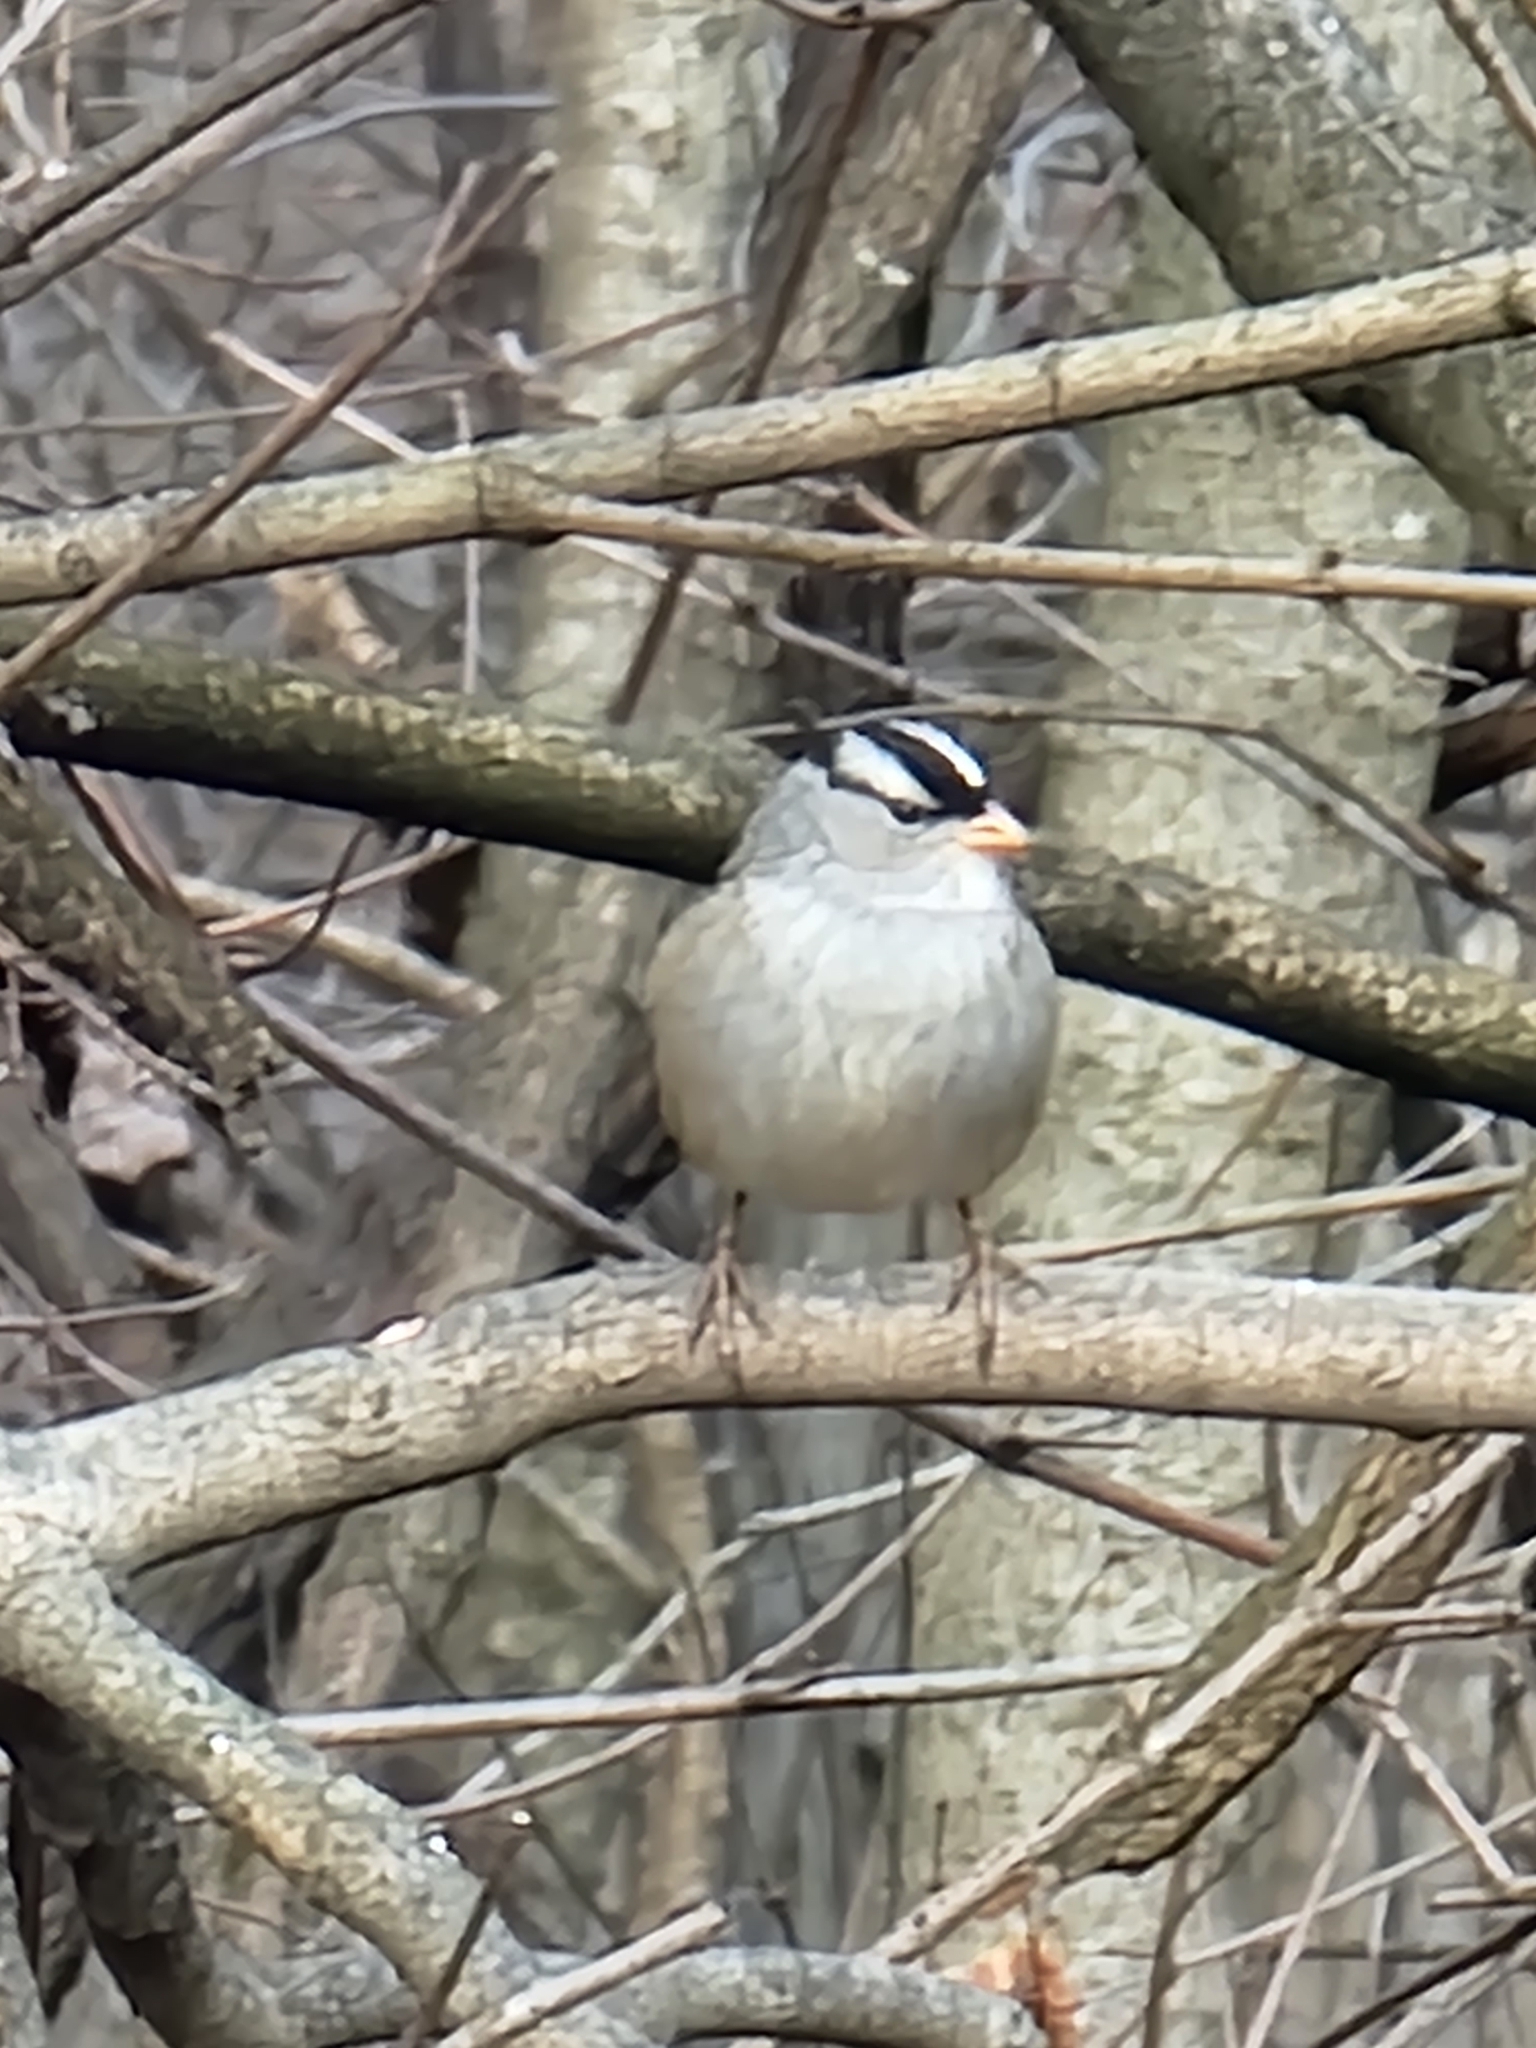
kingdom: Animalia
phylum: Chordata
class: Aves
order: Passeriformes
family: Passerellidae
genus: Zonotrichia
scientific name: Zonotrichia leucophrys
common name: White-crowned sparrow
